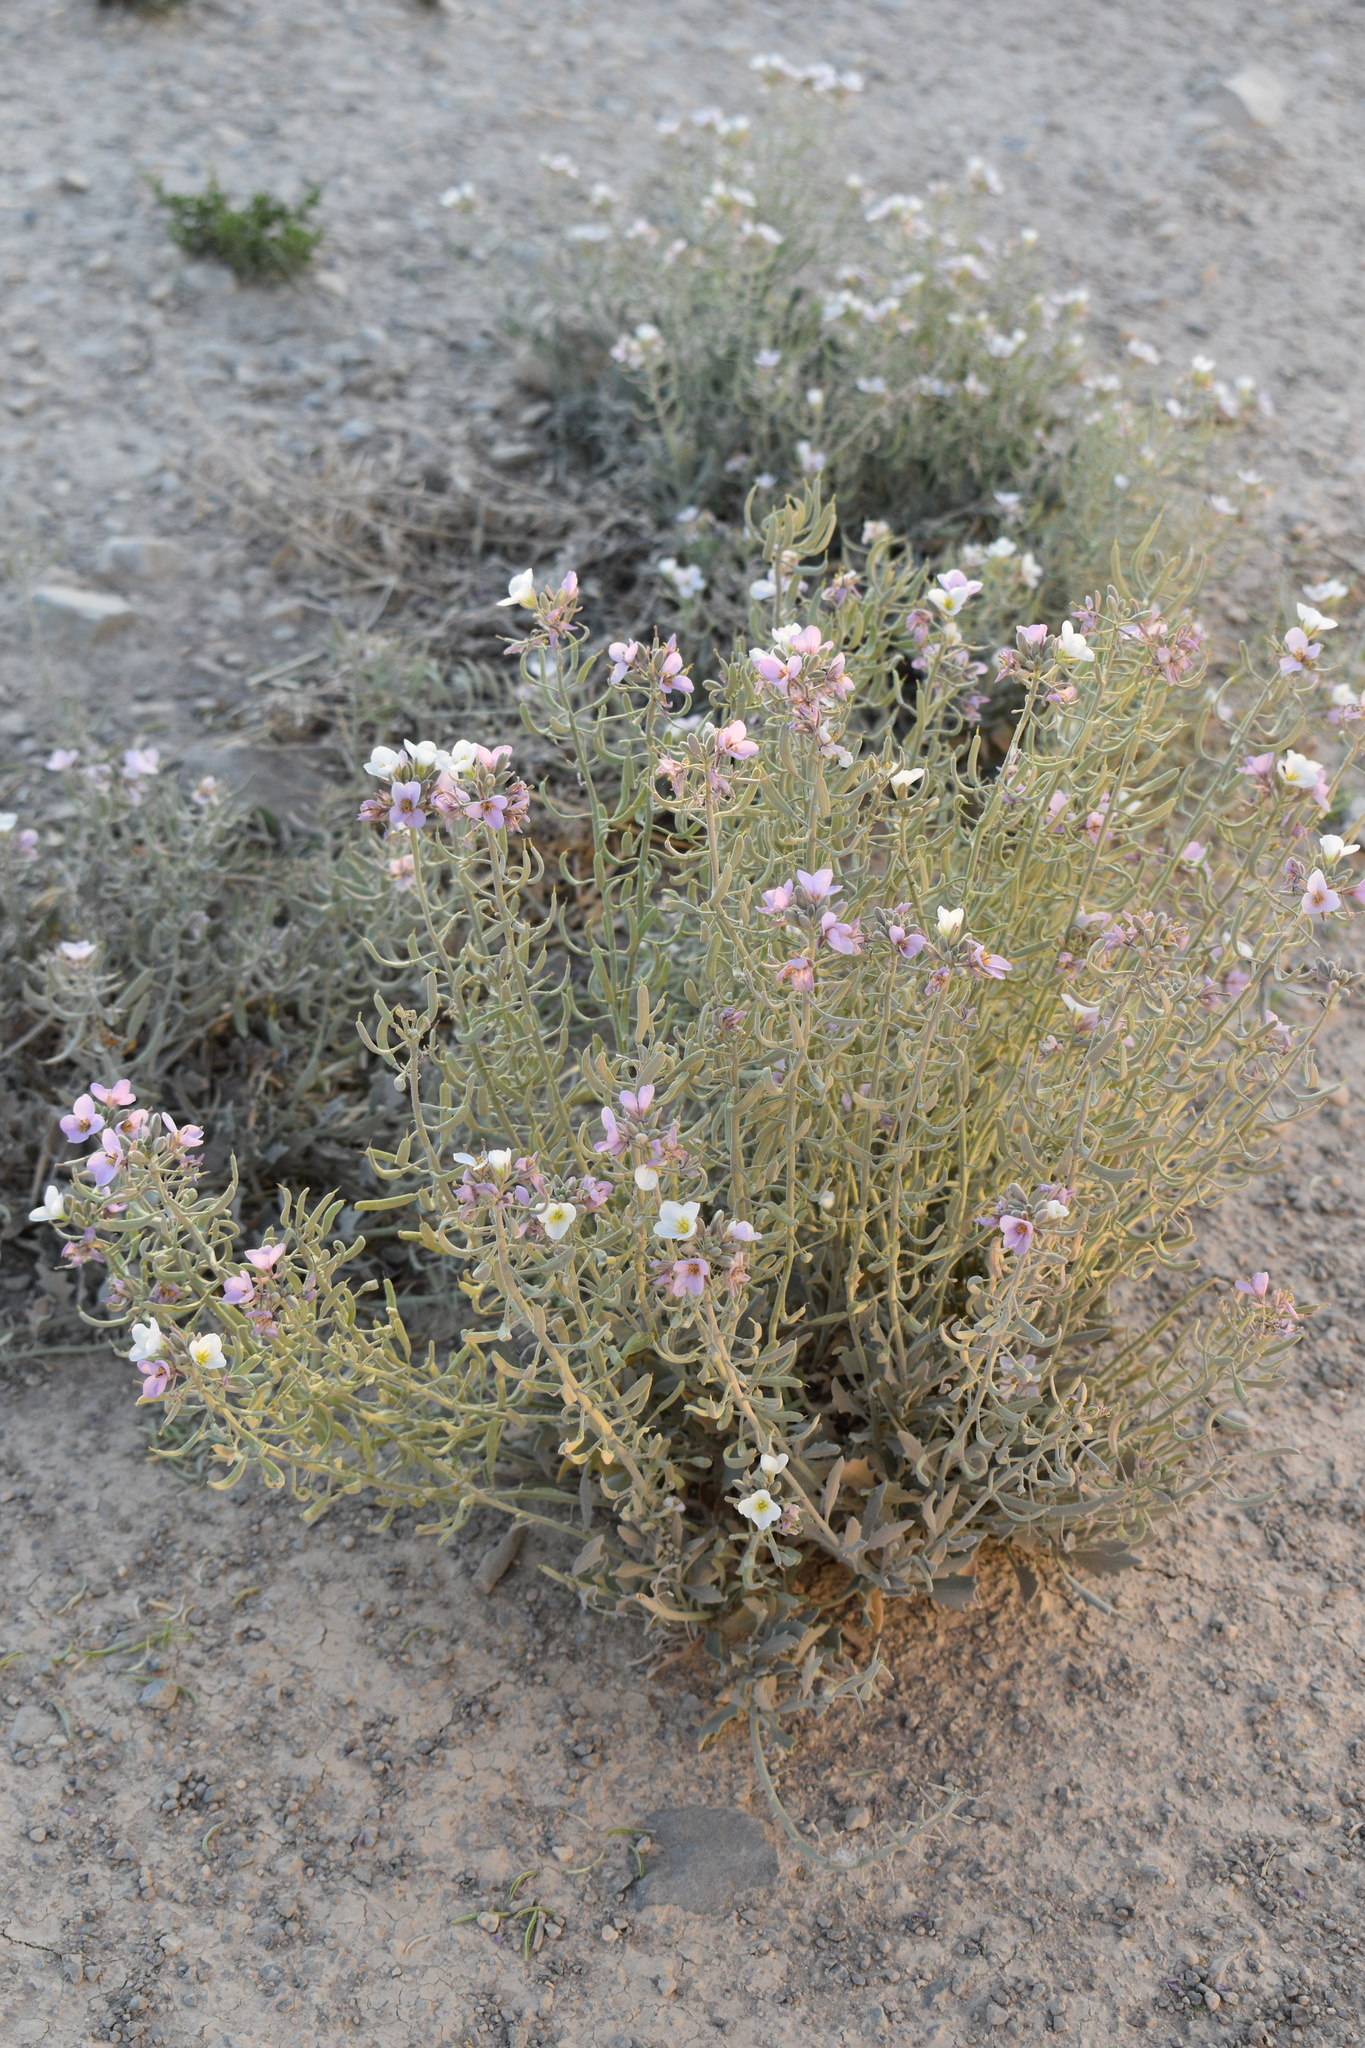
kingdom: Plantae
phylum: Tracheophyta
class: Magnoliopsida
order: Brassicales
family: Brassicaceae
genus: Nerisyrenia
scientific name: Nerisyrenia camporum
